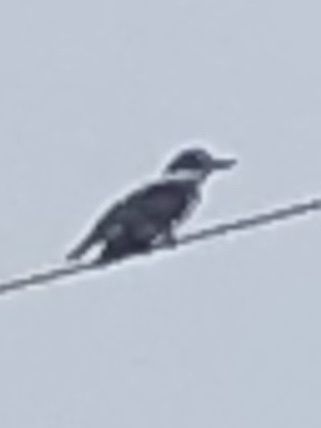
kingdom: Animalia
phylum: Chordata
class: Aves
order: Coraciiformes
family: Alcedinidae
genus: Megaceryle
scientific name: Megaceryle alcyon
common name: Belted kingfisher
